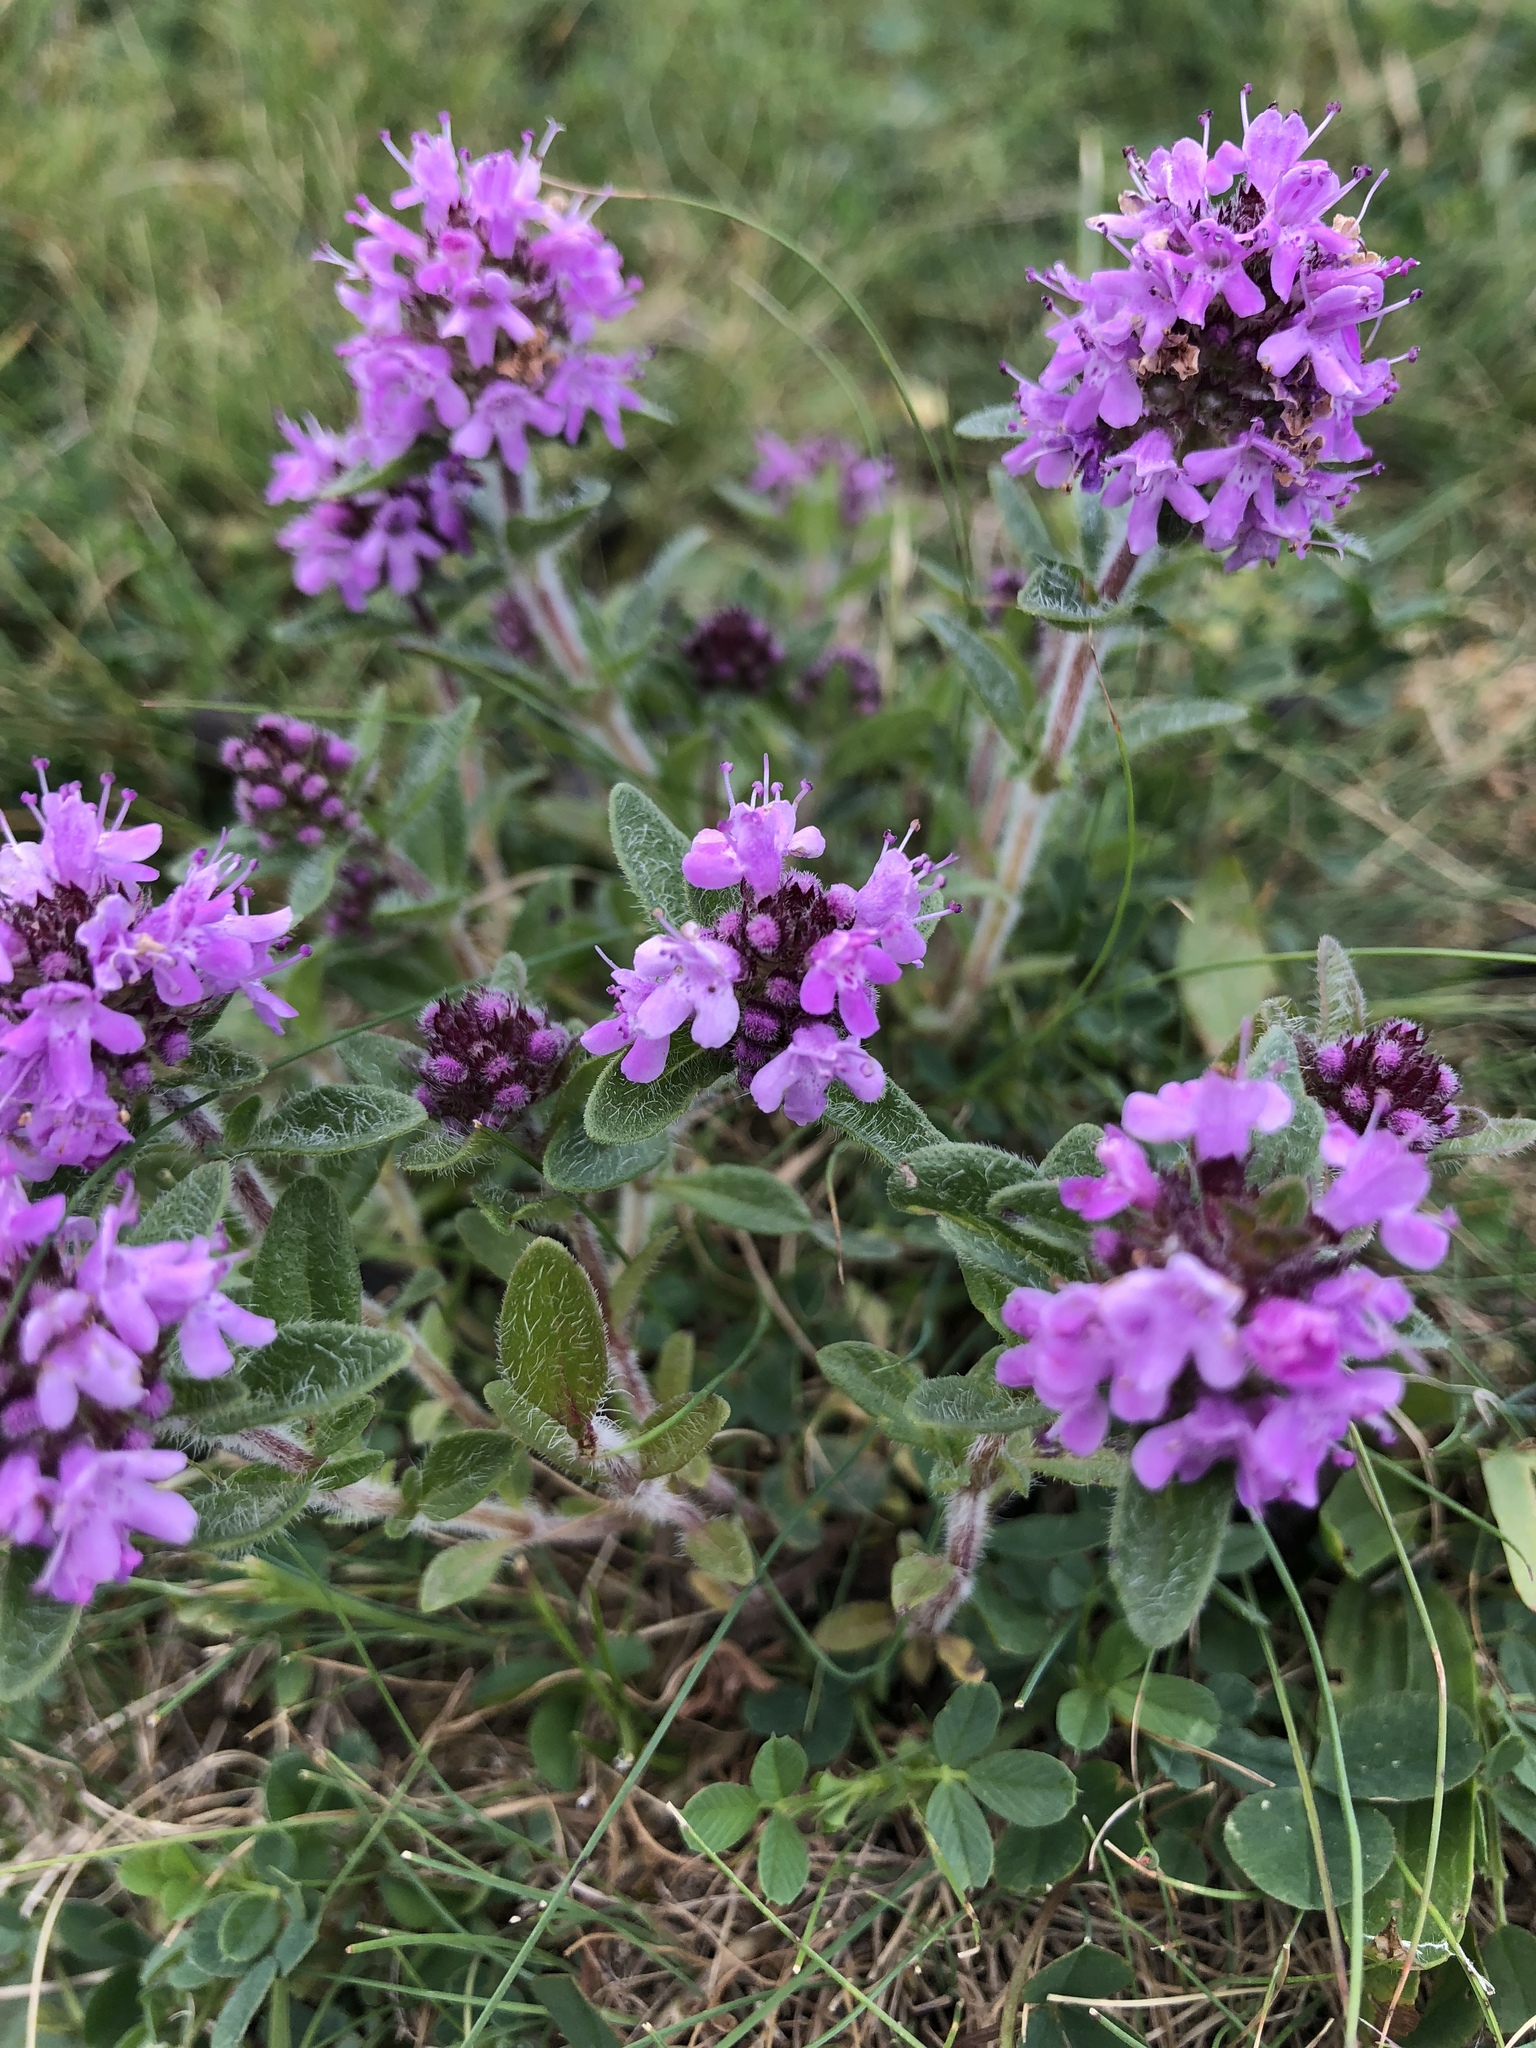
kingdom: Plantae
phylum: Tracheophyta
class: Magnoliopsida
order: Lamiales
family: Lamiaceae
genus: Thymus
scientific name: Thymus serpyllum
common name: Breckland thyme
